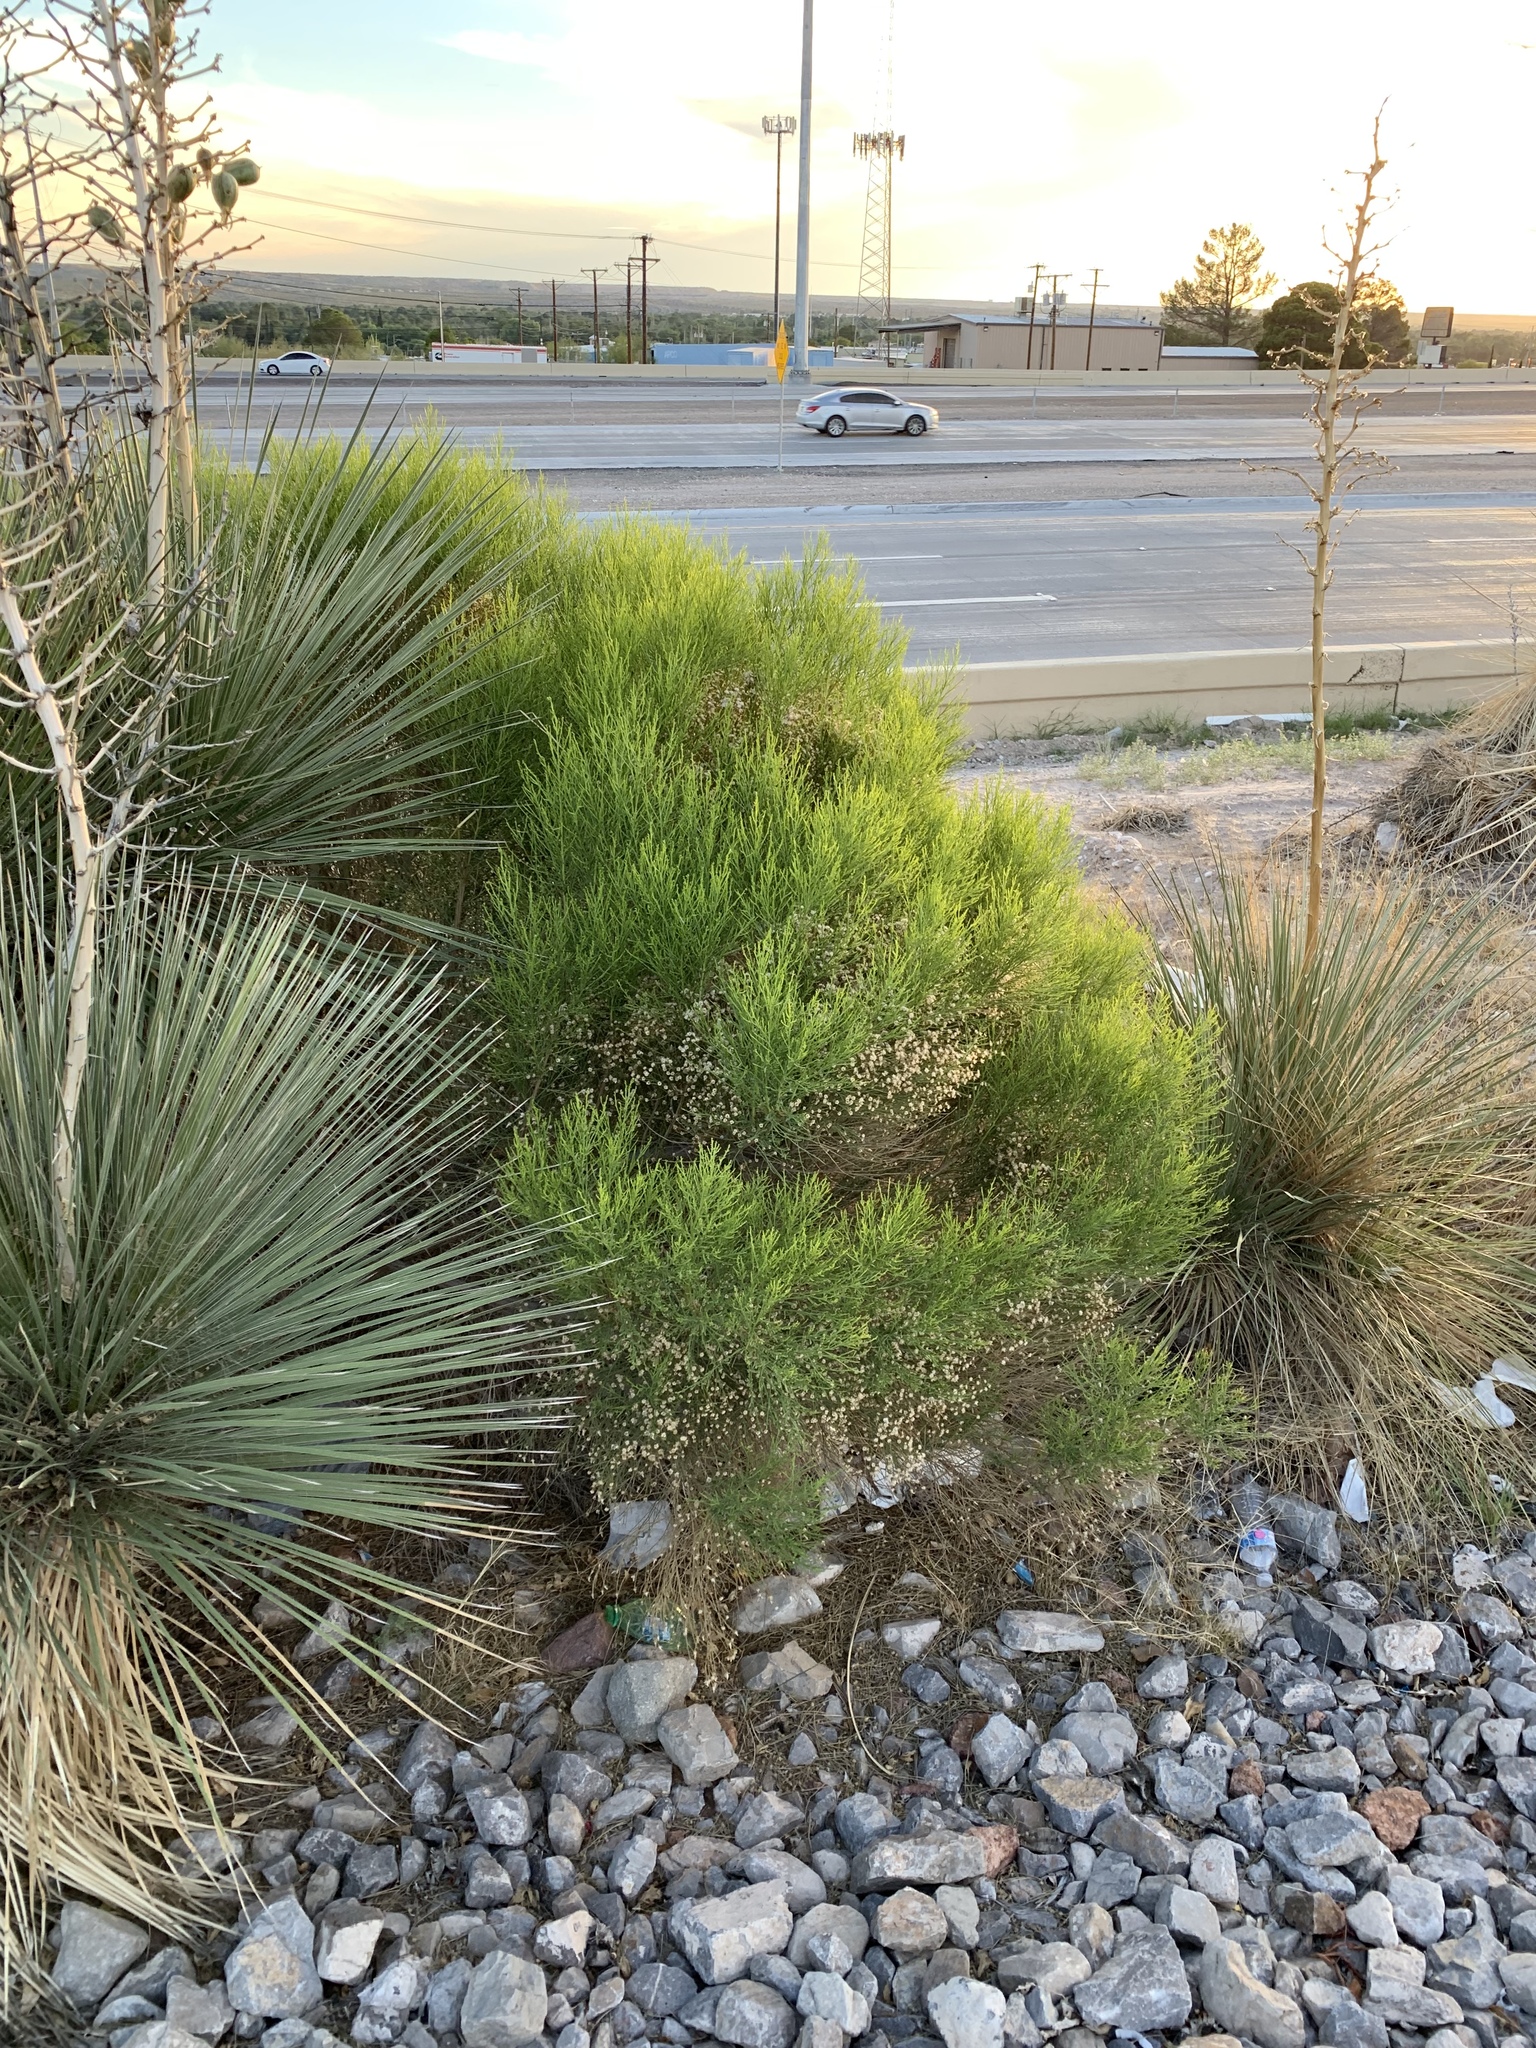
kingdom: Plantae
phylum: Tracheophyta
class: Magnoliopsida
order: Asterales
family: Asteraceae
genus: Baccharis
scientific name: Baccharis sarothroides
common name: Desert-broom
